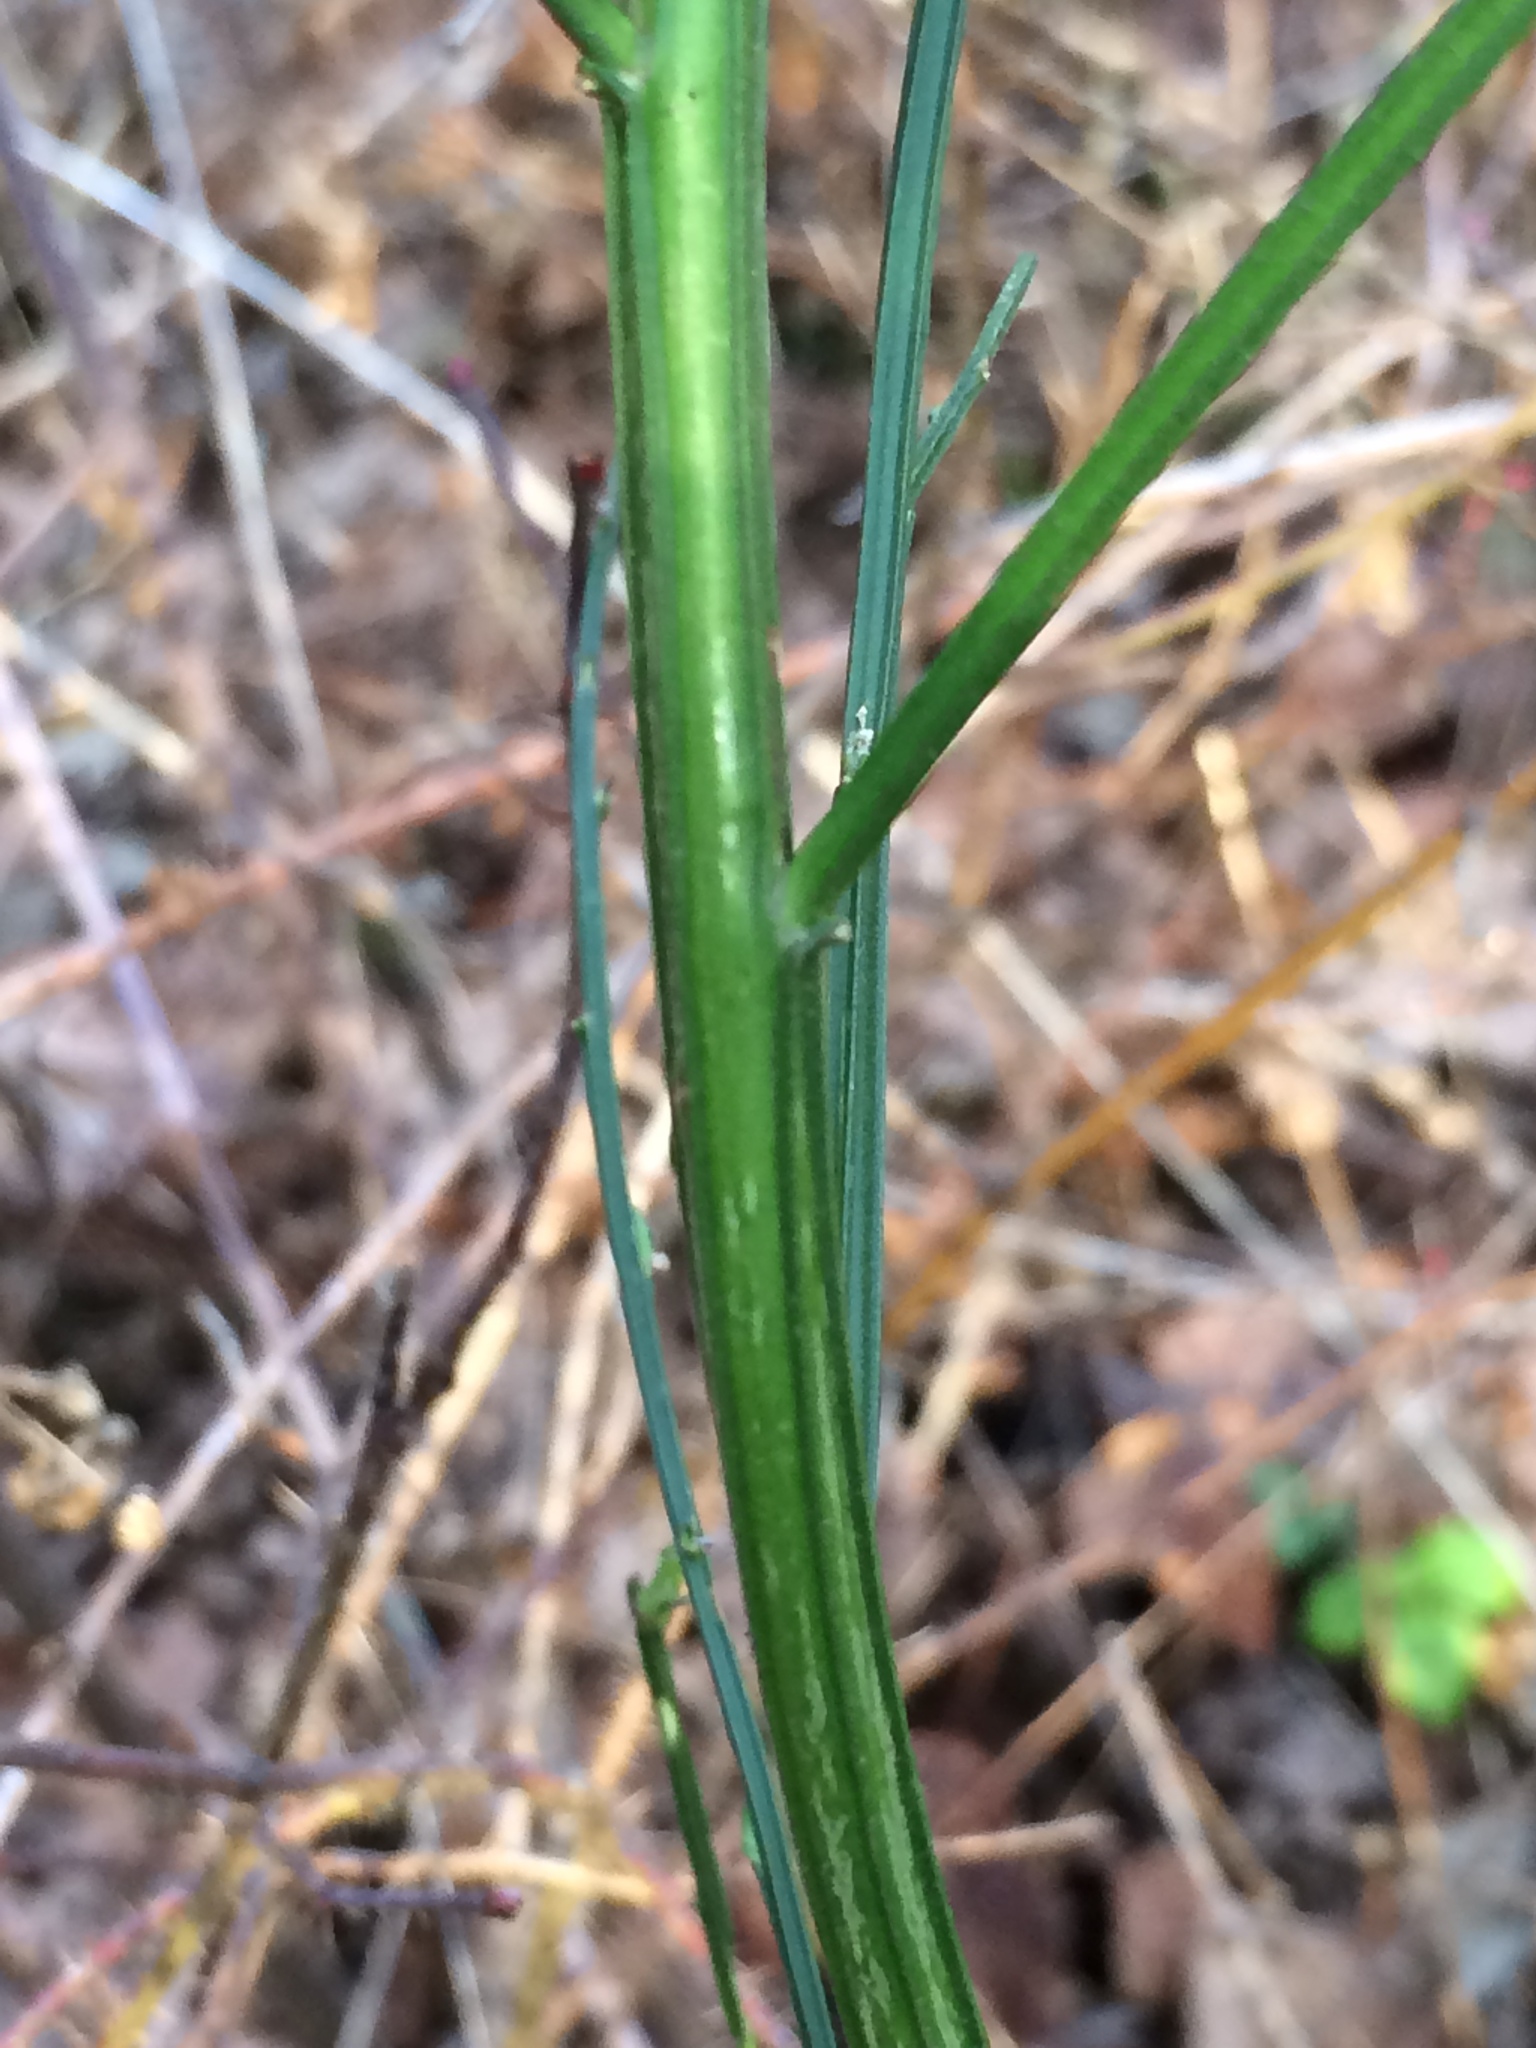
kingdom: Plantae
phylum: Tracheophyta
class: Magnoliopsida
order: Fabales
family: Fabaceae
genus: Cytisus
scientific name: Cytisus scoparius
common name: Scotch broom
